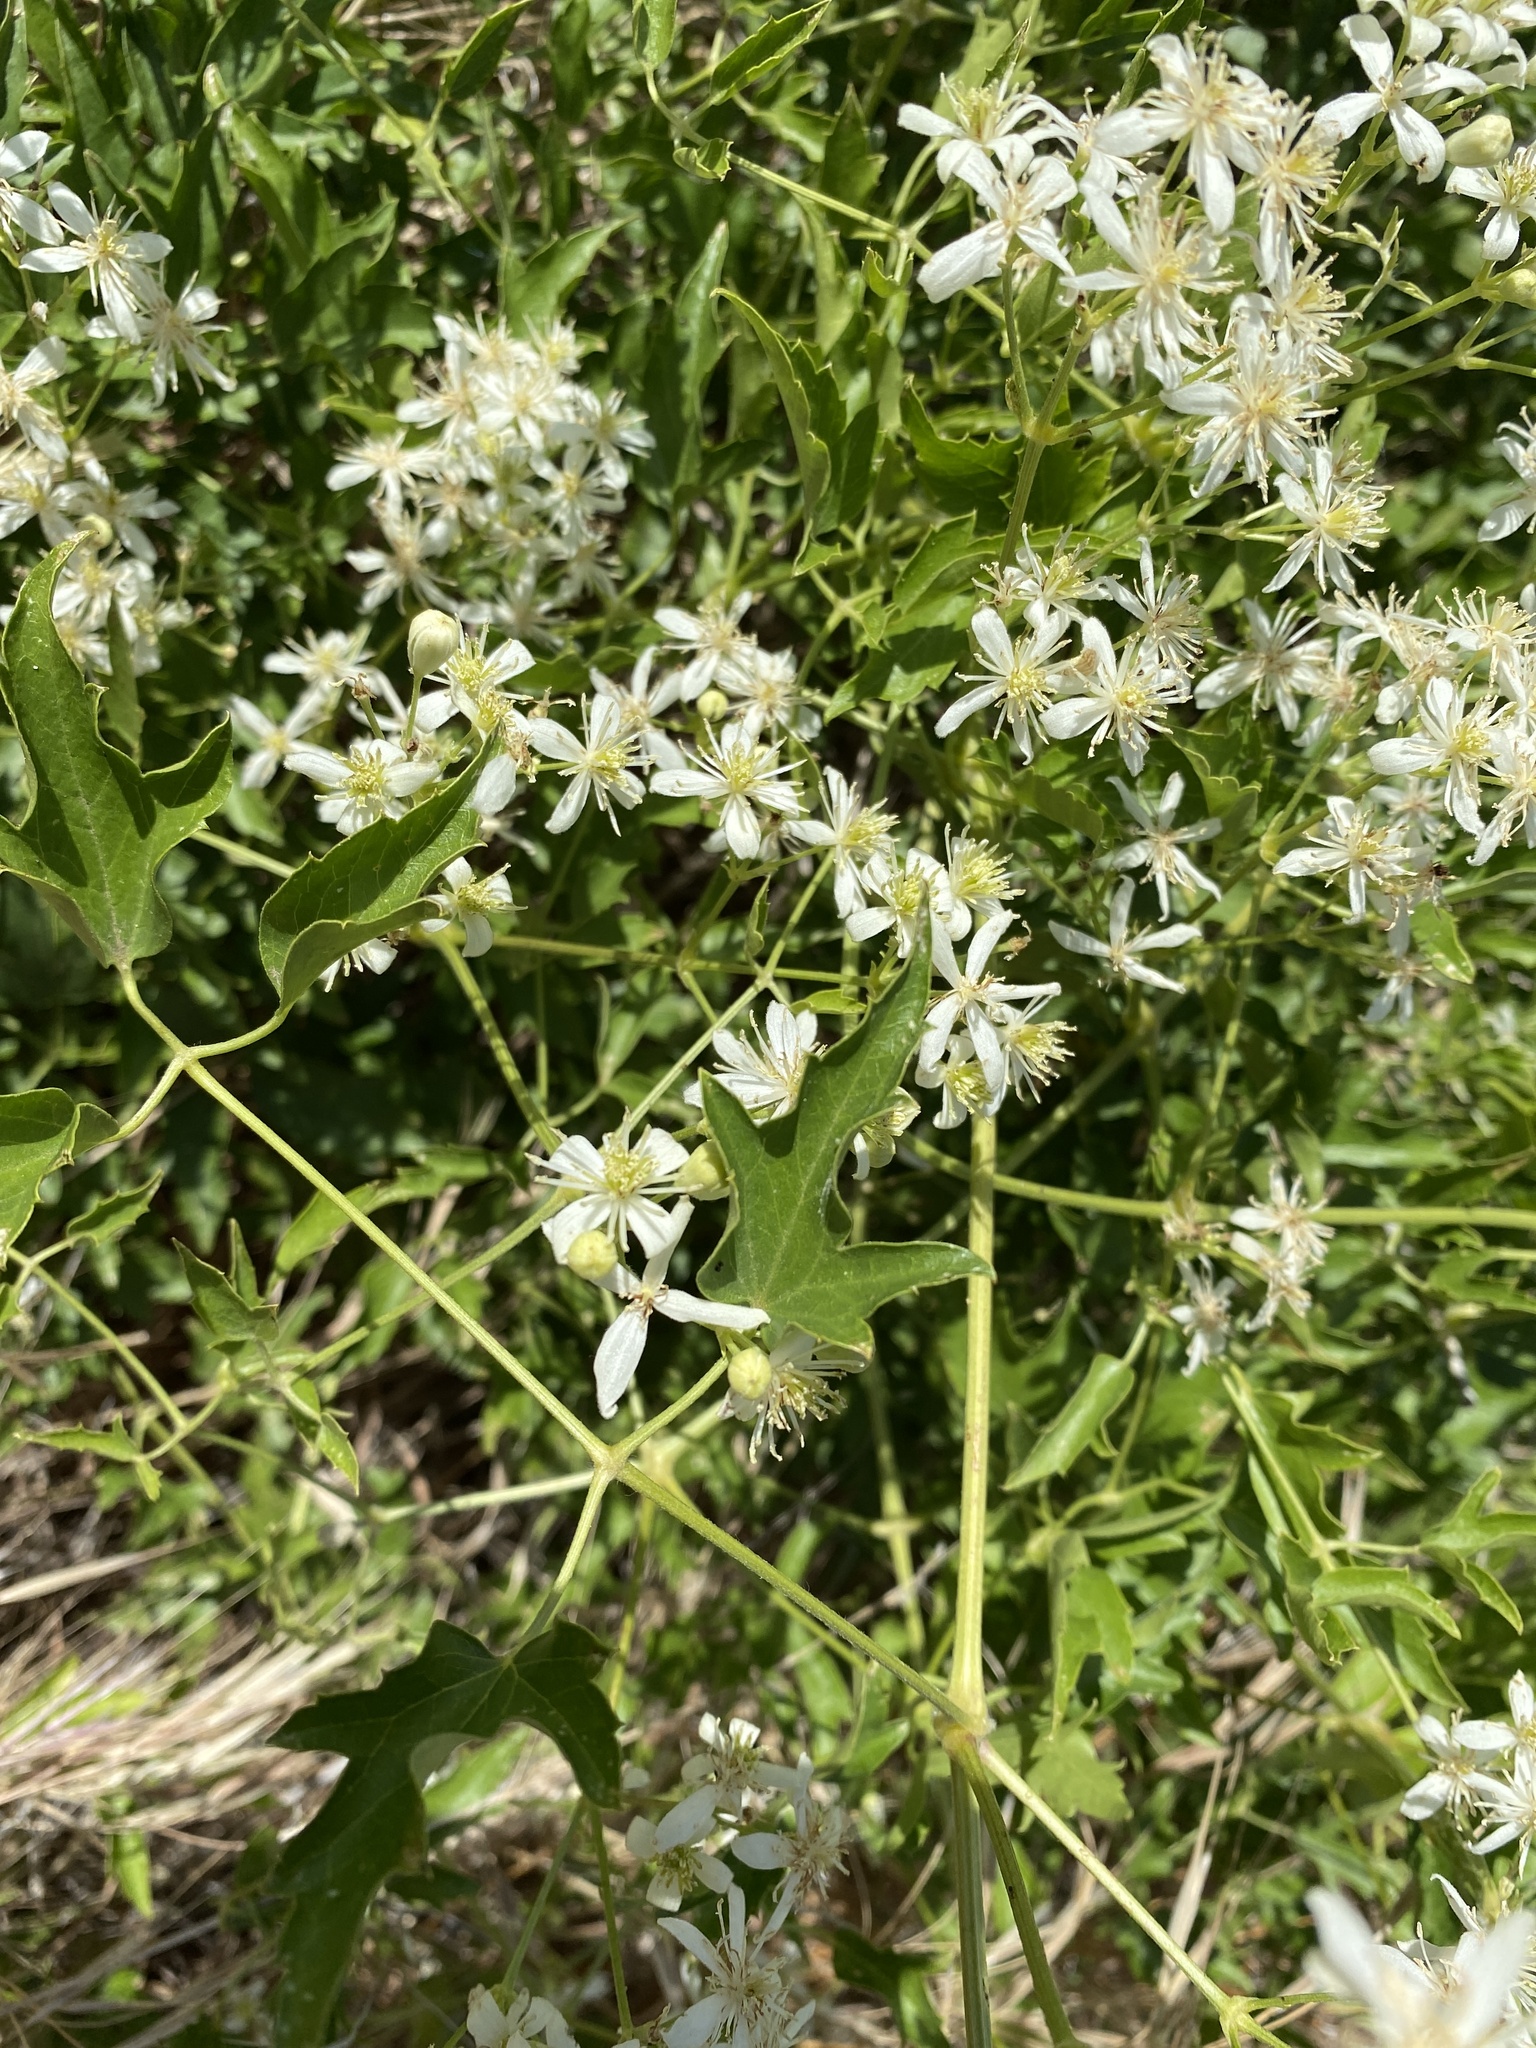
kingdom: Plantae
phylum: Tracheophyta
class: Magnoliopsida
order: Ranunculales
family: Ranunculaceae
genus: Clematis
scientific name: Clematis ligusticifolia
